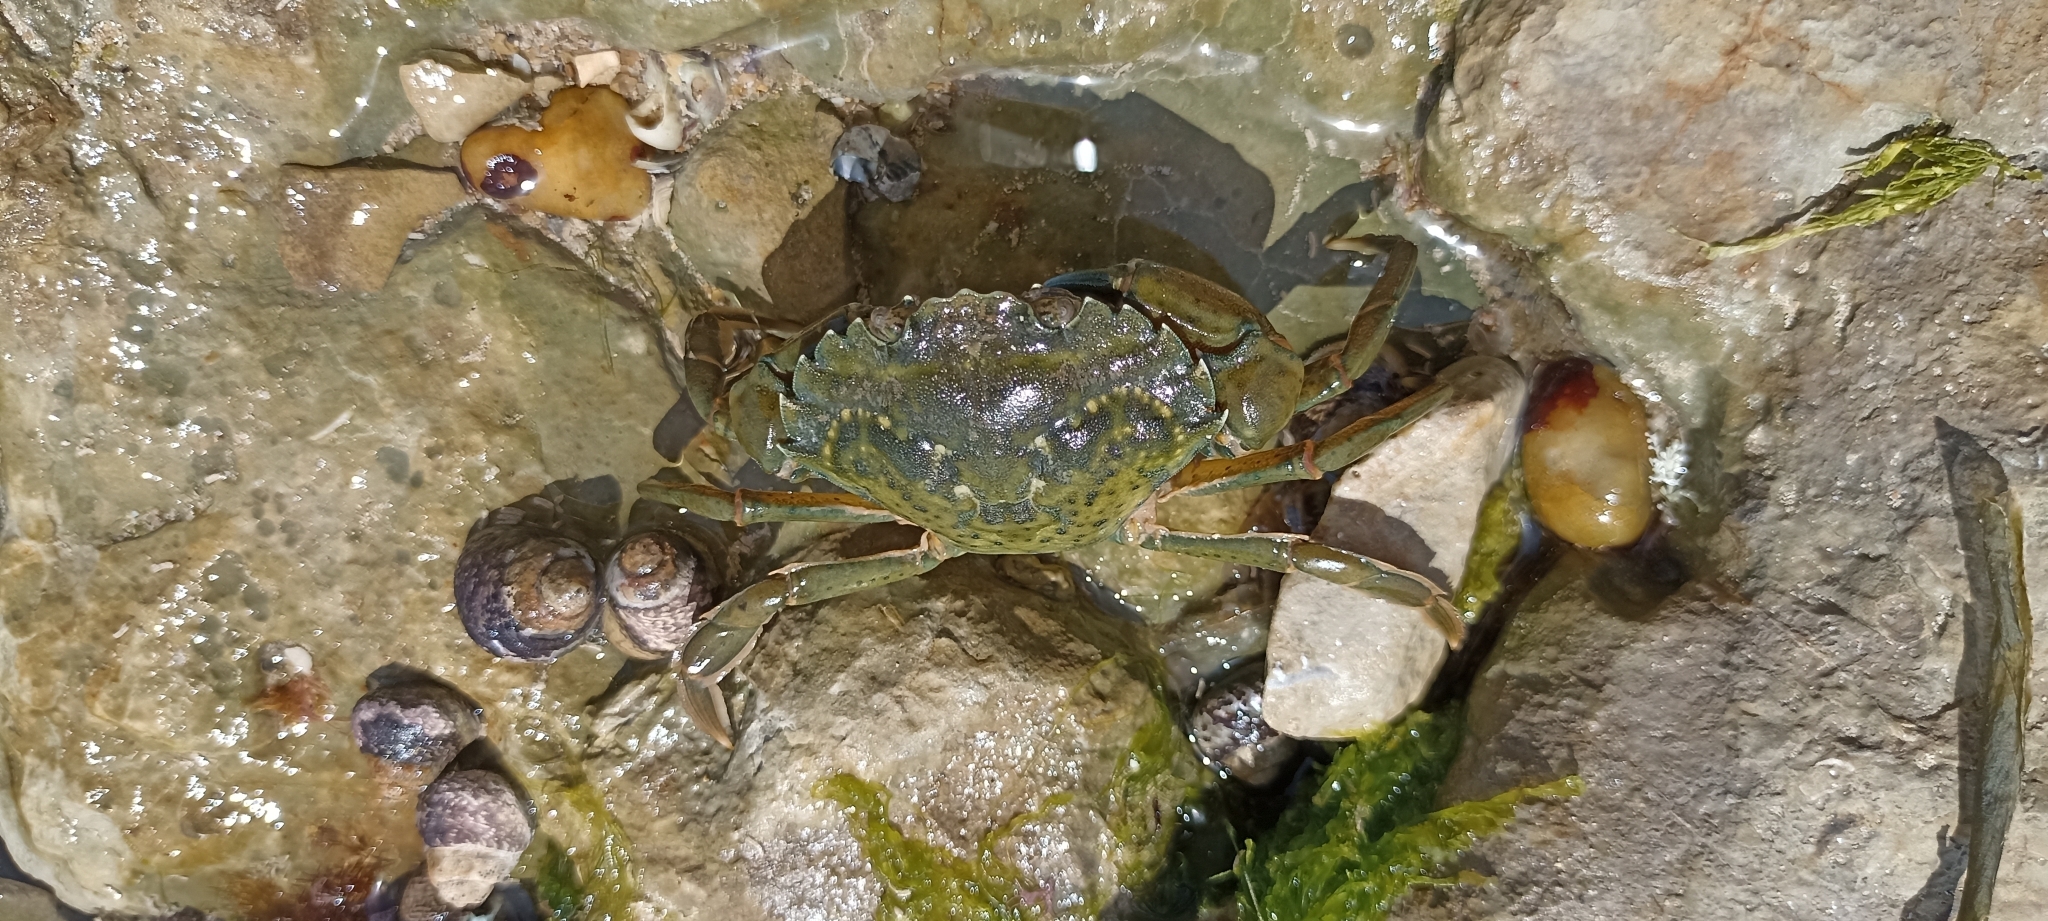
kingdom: Animalia
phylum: Arthropoda
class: Malacostraca
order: Decapoda
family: Carcinidae
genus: Carcinus
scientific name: Carcinus maenas
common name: European green crab
